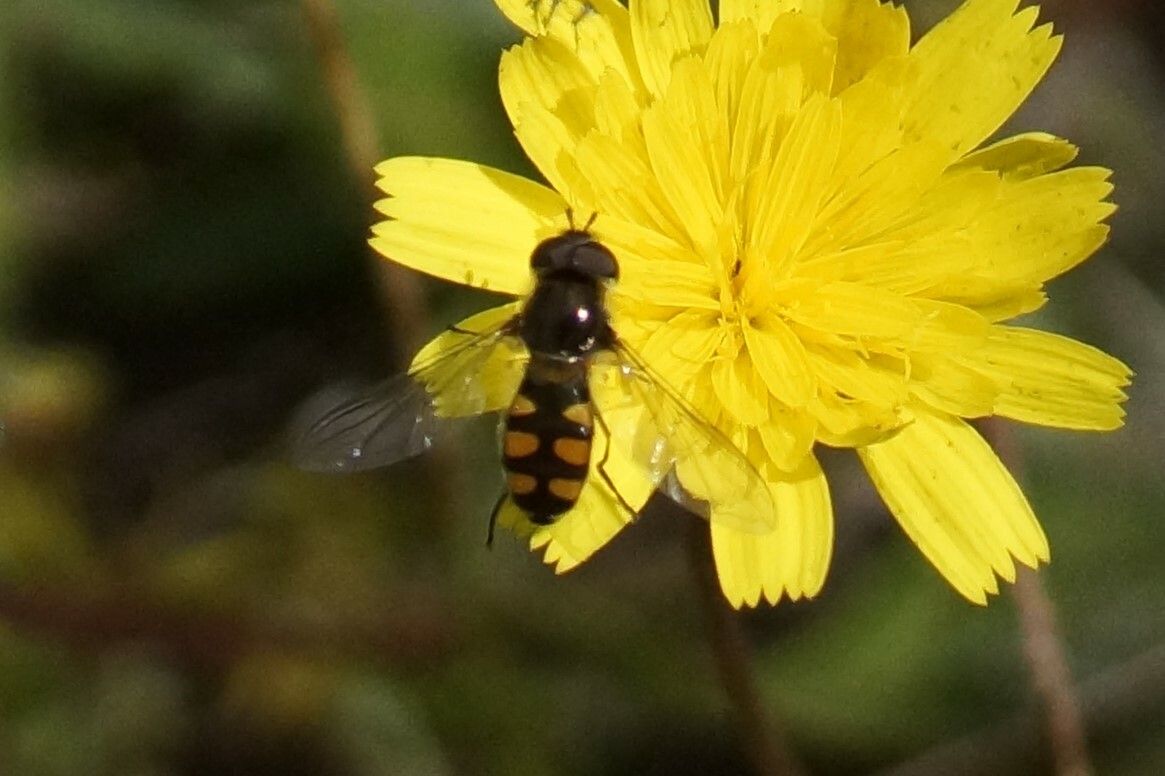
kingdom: Animalia
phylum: Arthropoda
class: Insecta
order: Diptera
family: Syrphidae
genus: Melangyna
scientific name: Melangyna viridiceps
